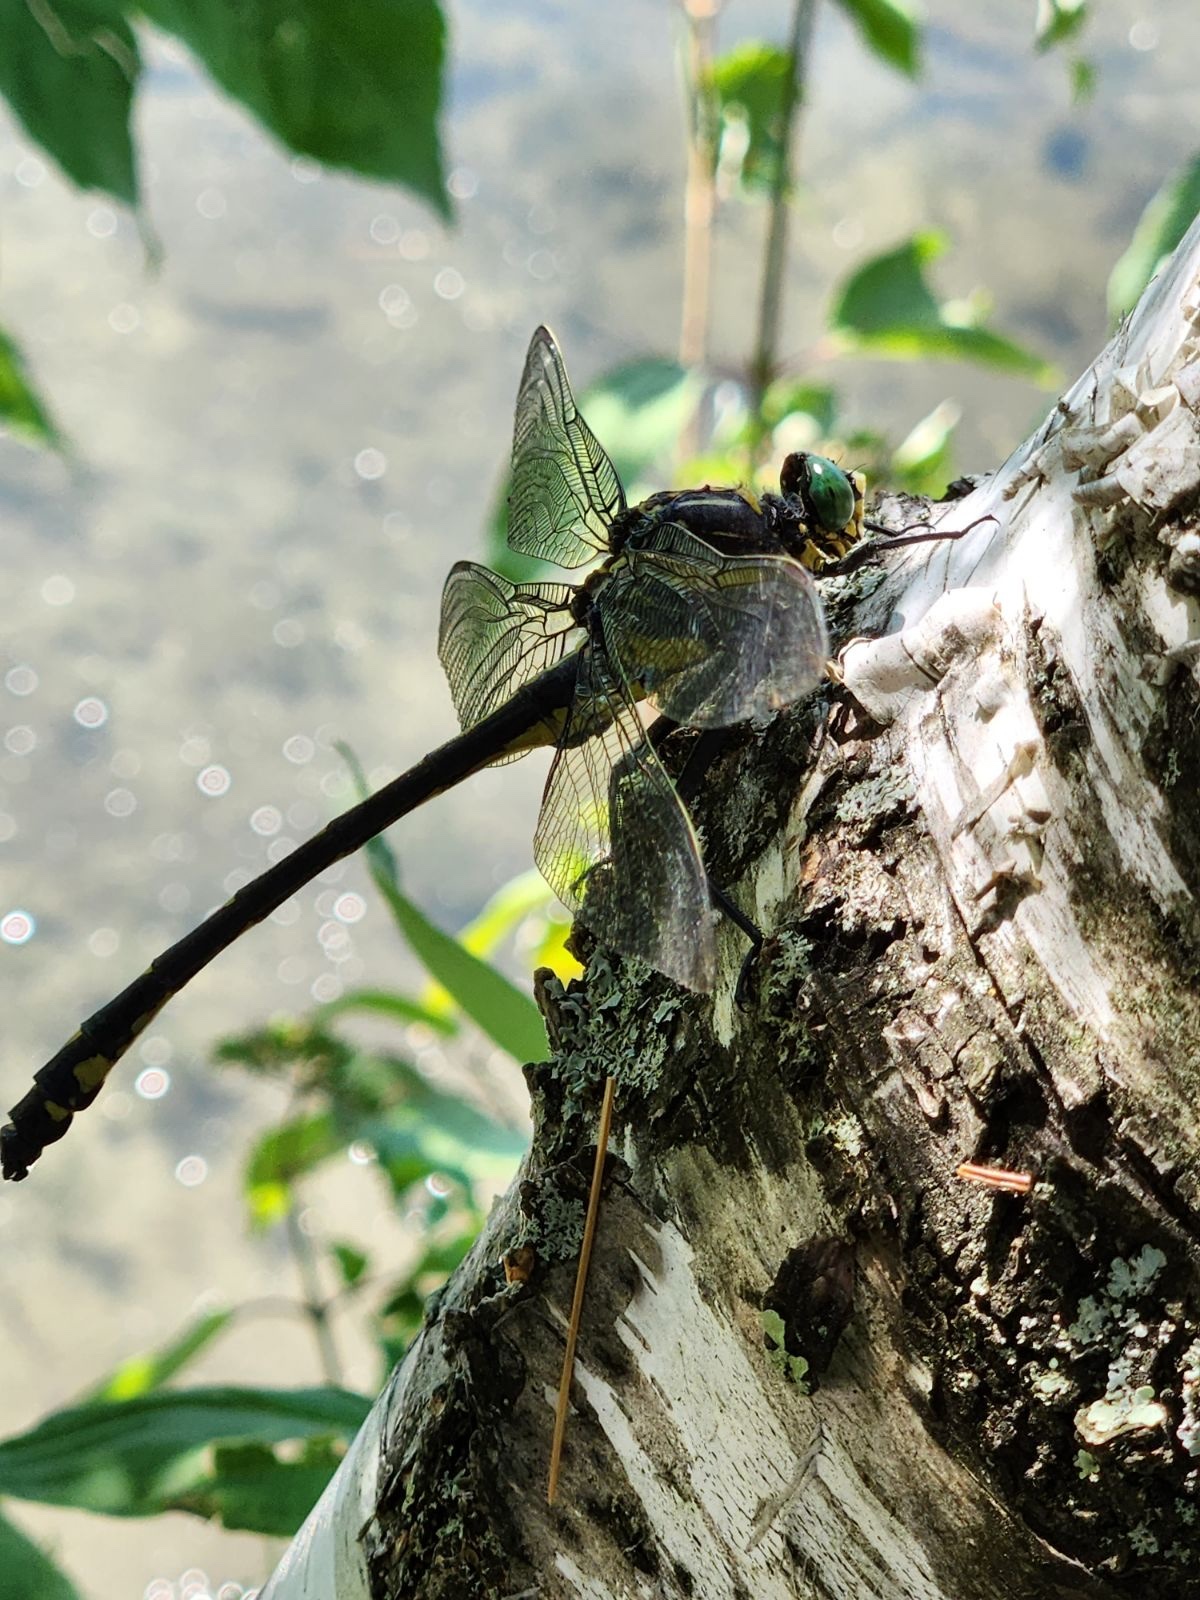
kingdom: Animalia
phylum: Arthropoda
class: Insecta
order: Odonata
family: Gomphidae
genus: Hagenius
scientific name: Hagenius brevistylus
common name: Dragonhunter
